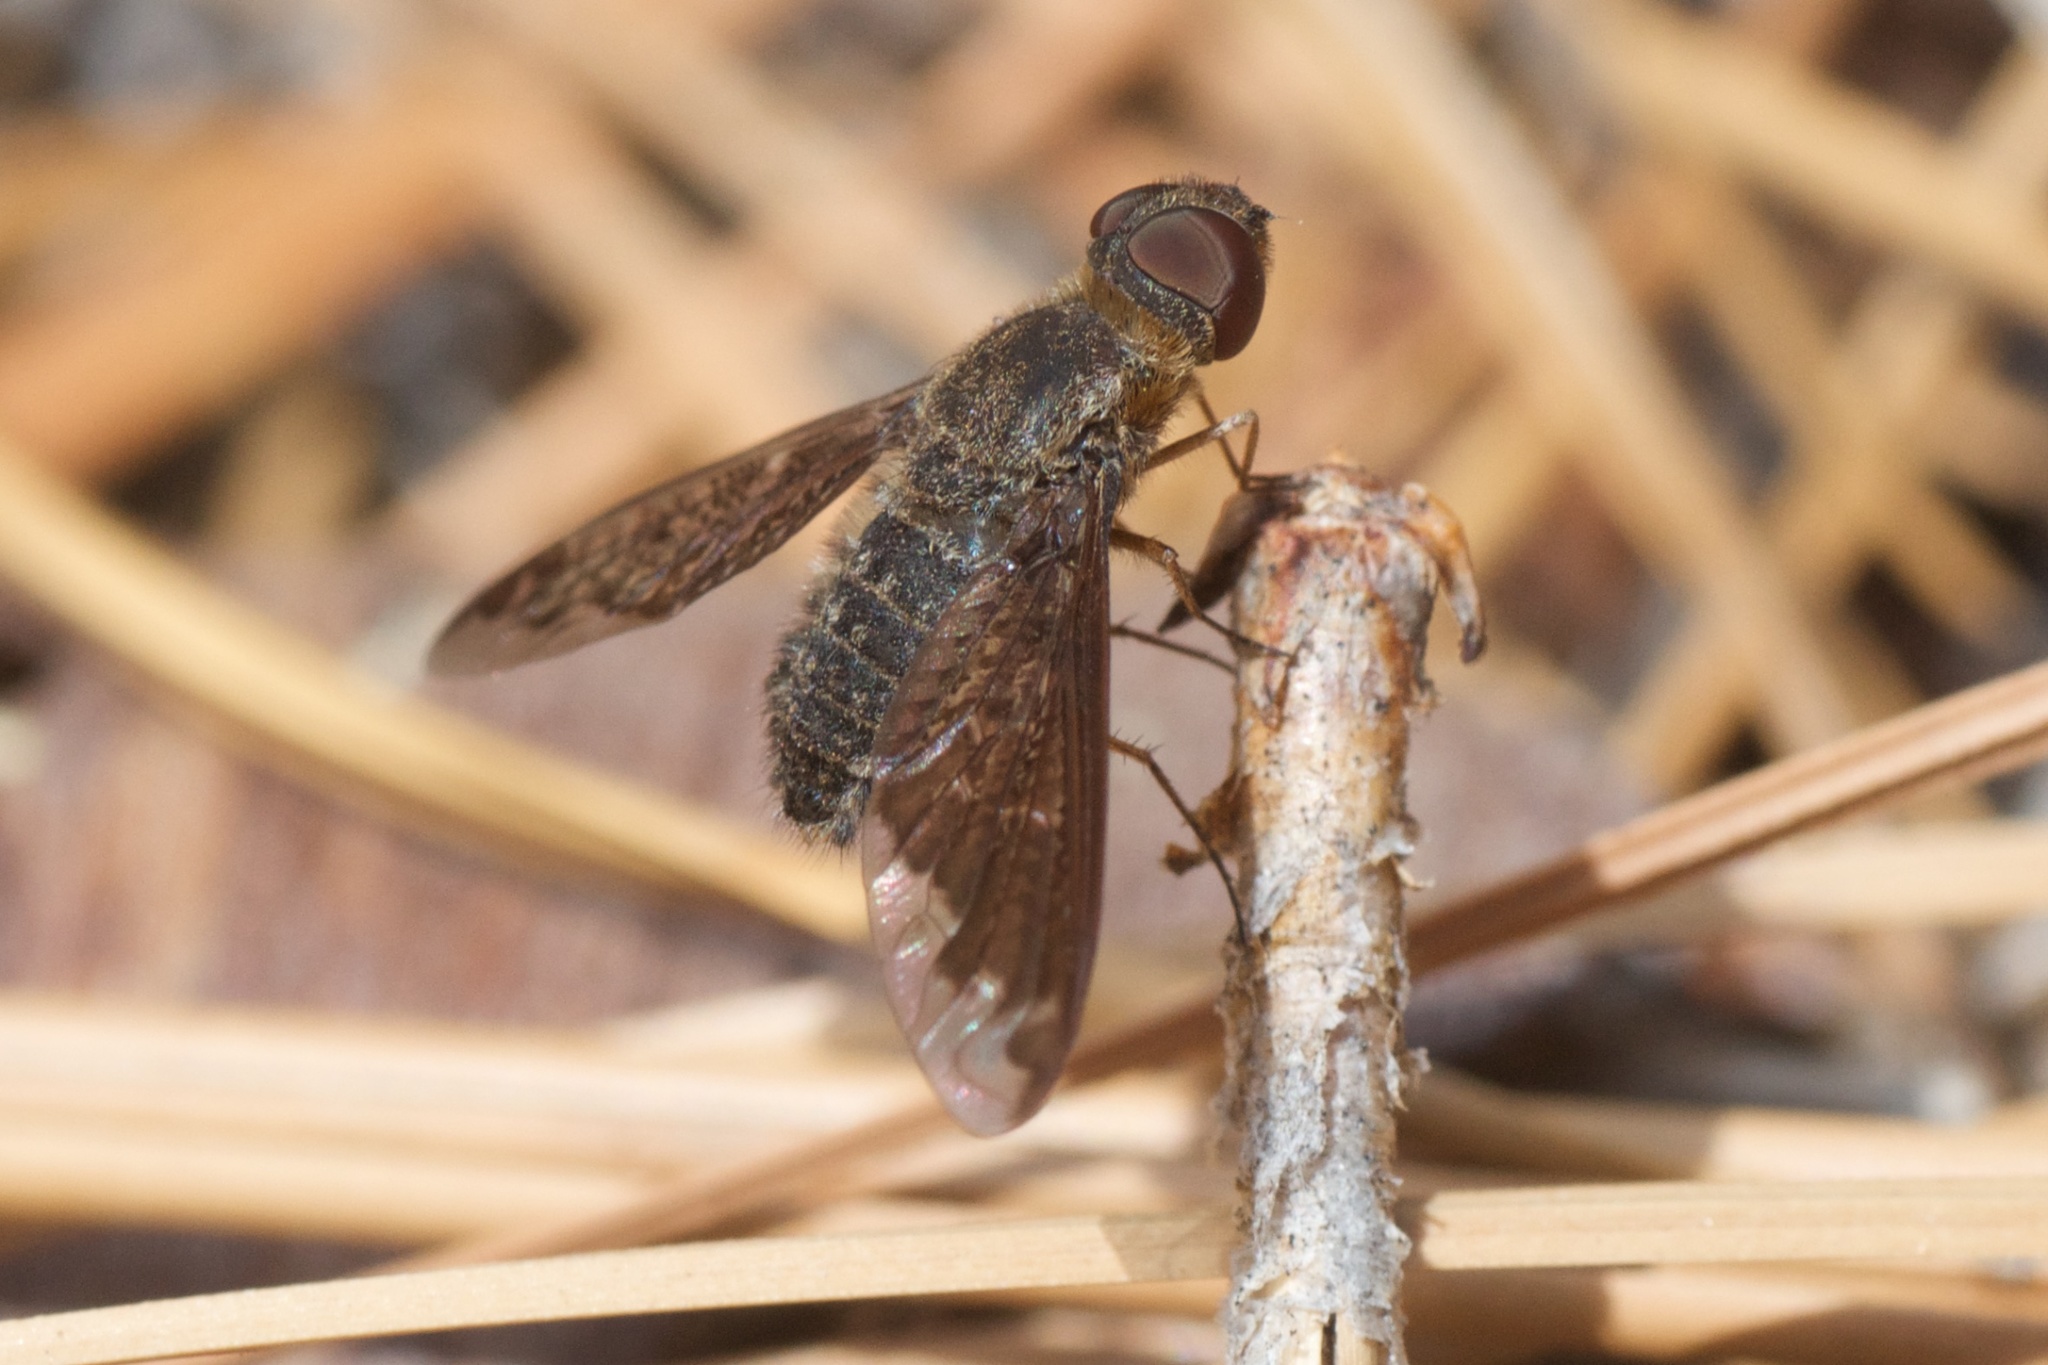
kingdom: Animalia
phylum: Arthropoda
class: Insecta
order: Diptera
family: Bombyliidae
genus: Hemipenthes
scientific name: Hemipenthes sinuosus
